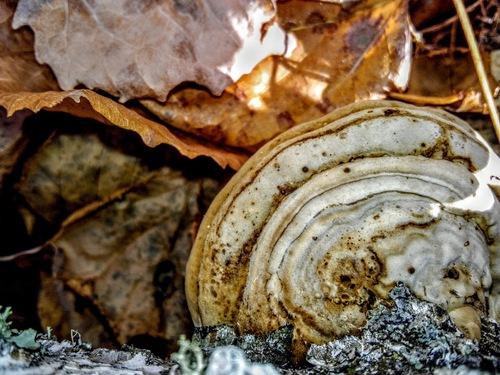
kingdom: Fungi
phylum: Basidiomycota
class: Agaricomycetes
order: Polyporales
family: Polyporaceae
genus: Fomes
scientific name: Fomes fomentarius
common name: Hoof fungus
